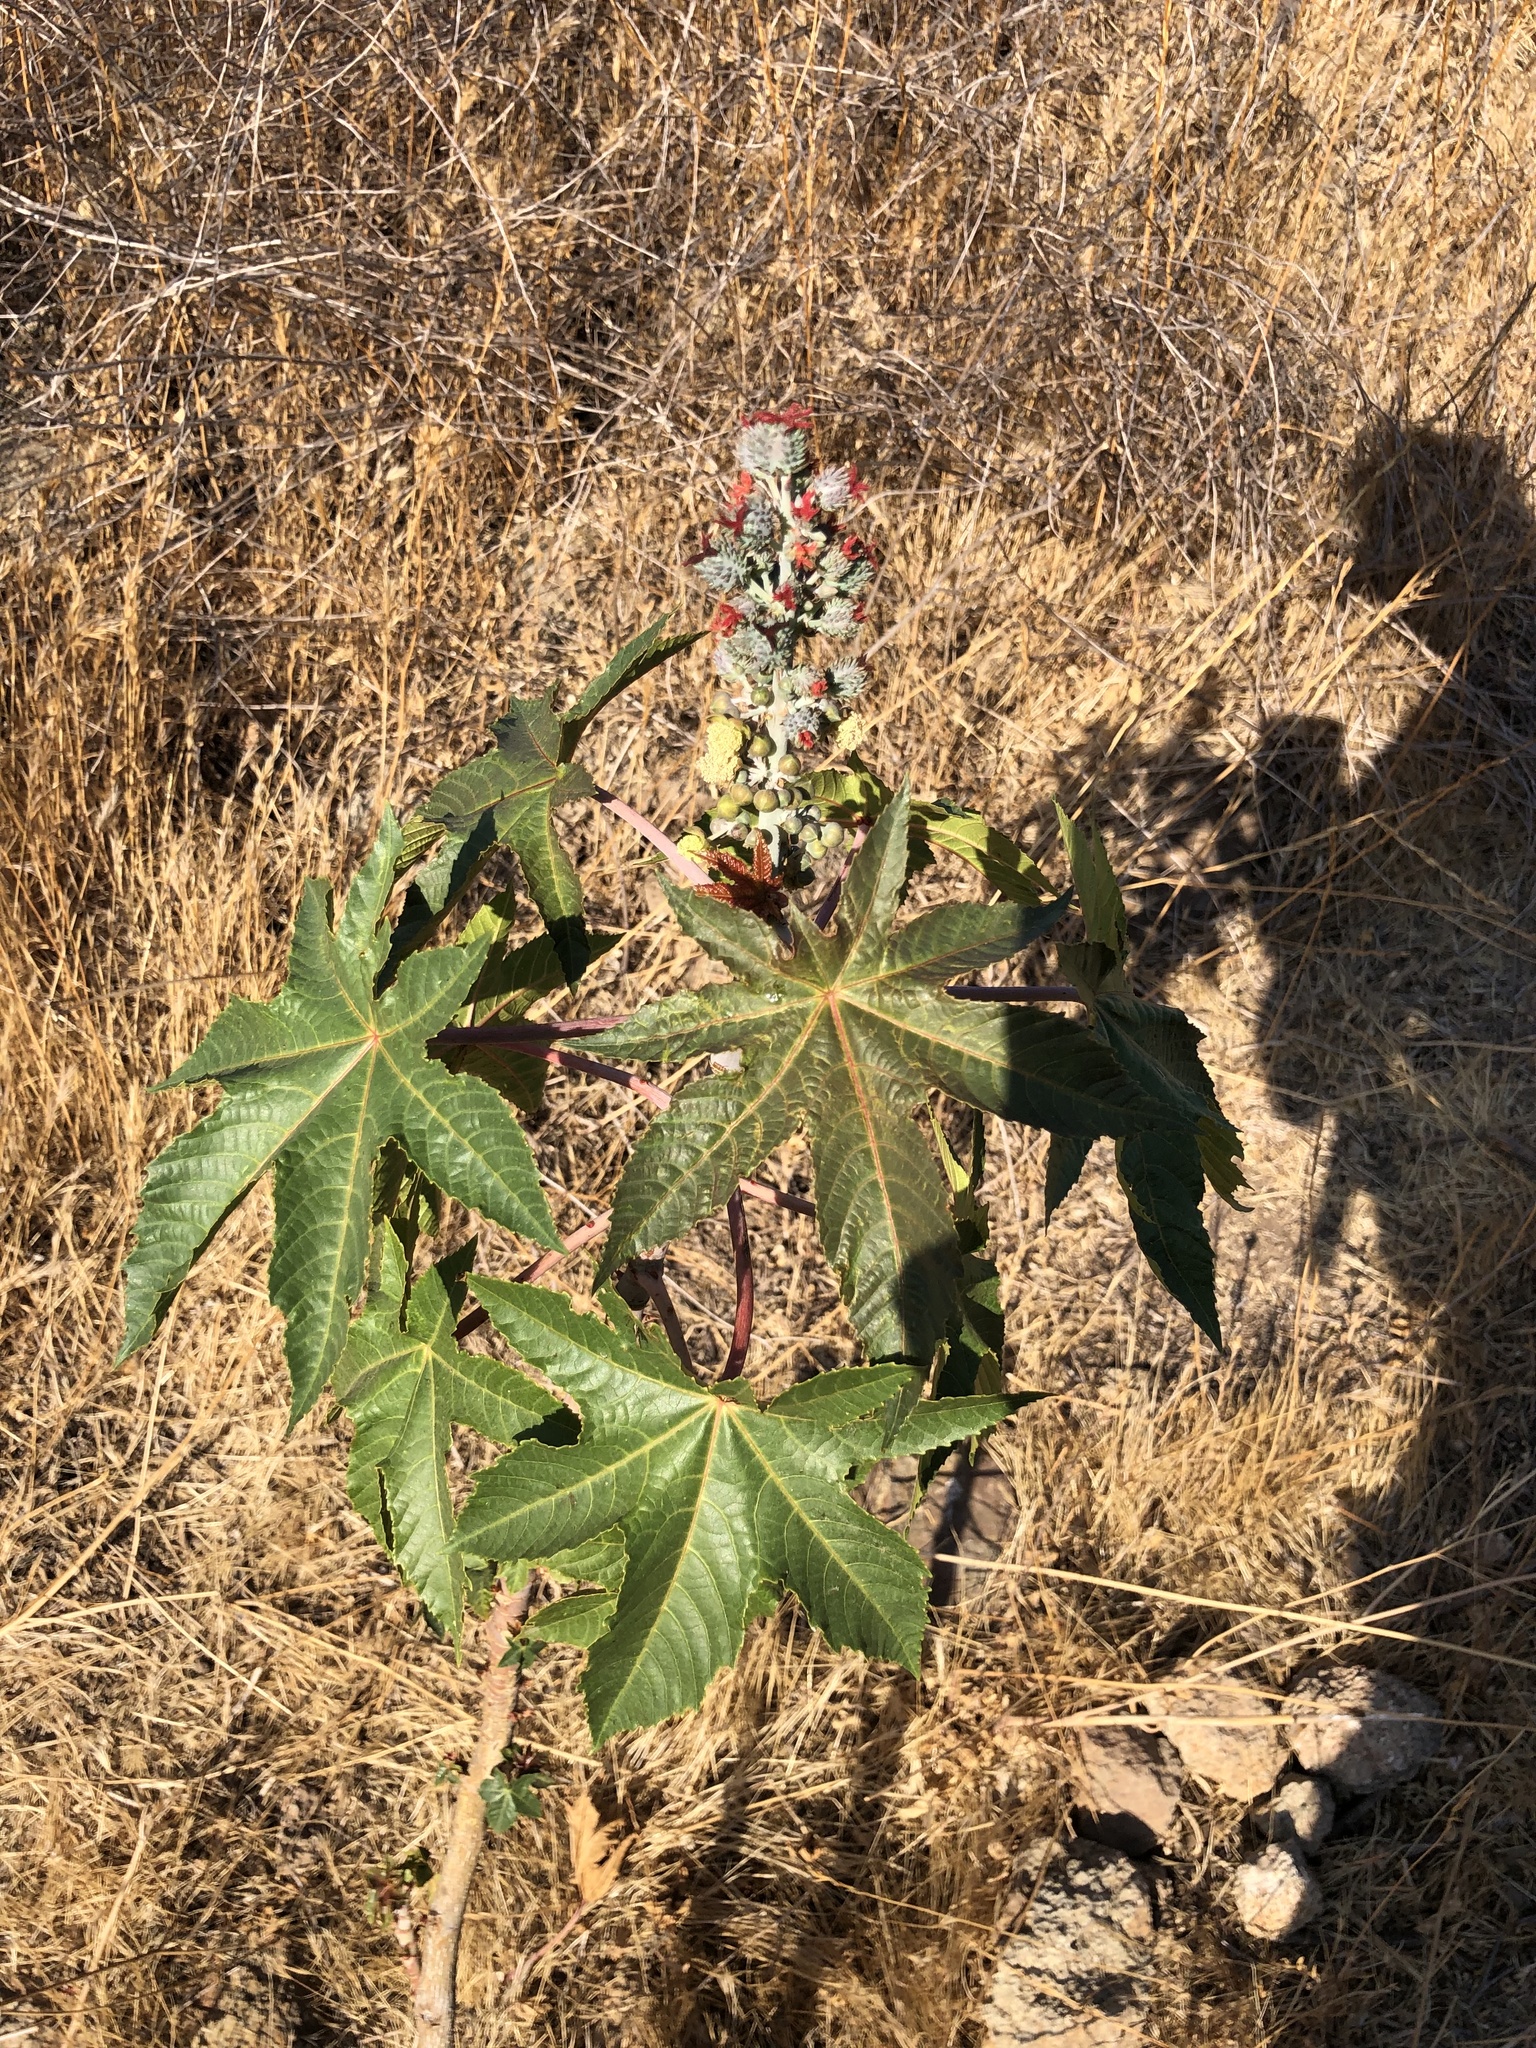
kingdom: Plantae
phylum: Tracheophyta
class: Magnoliopsida
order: Malpighiales
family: Euphorbiaceae
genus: Ricinus
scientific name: Ricinus communis
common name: Castor-oil-plant
